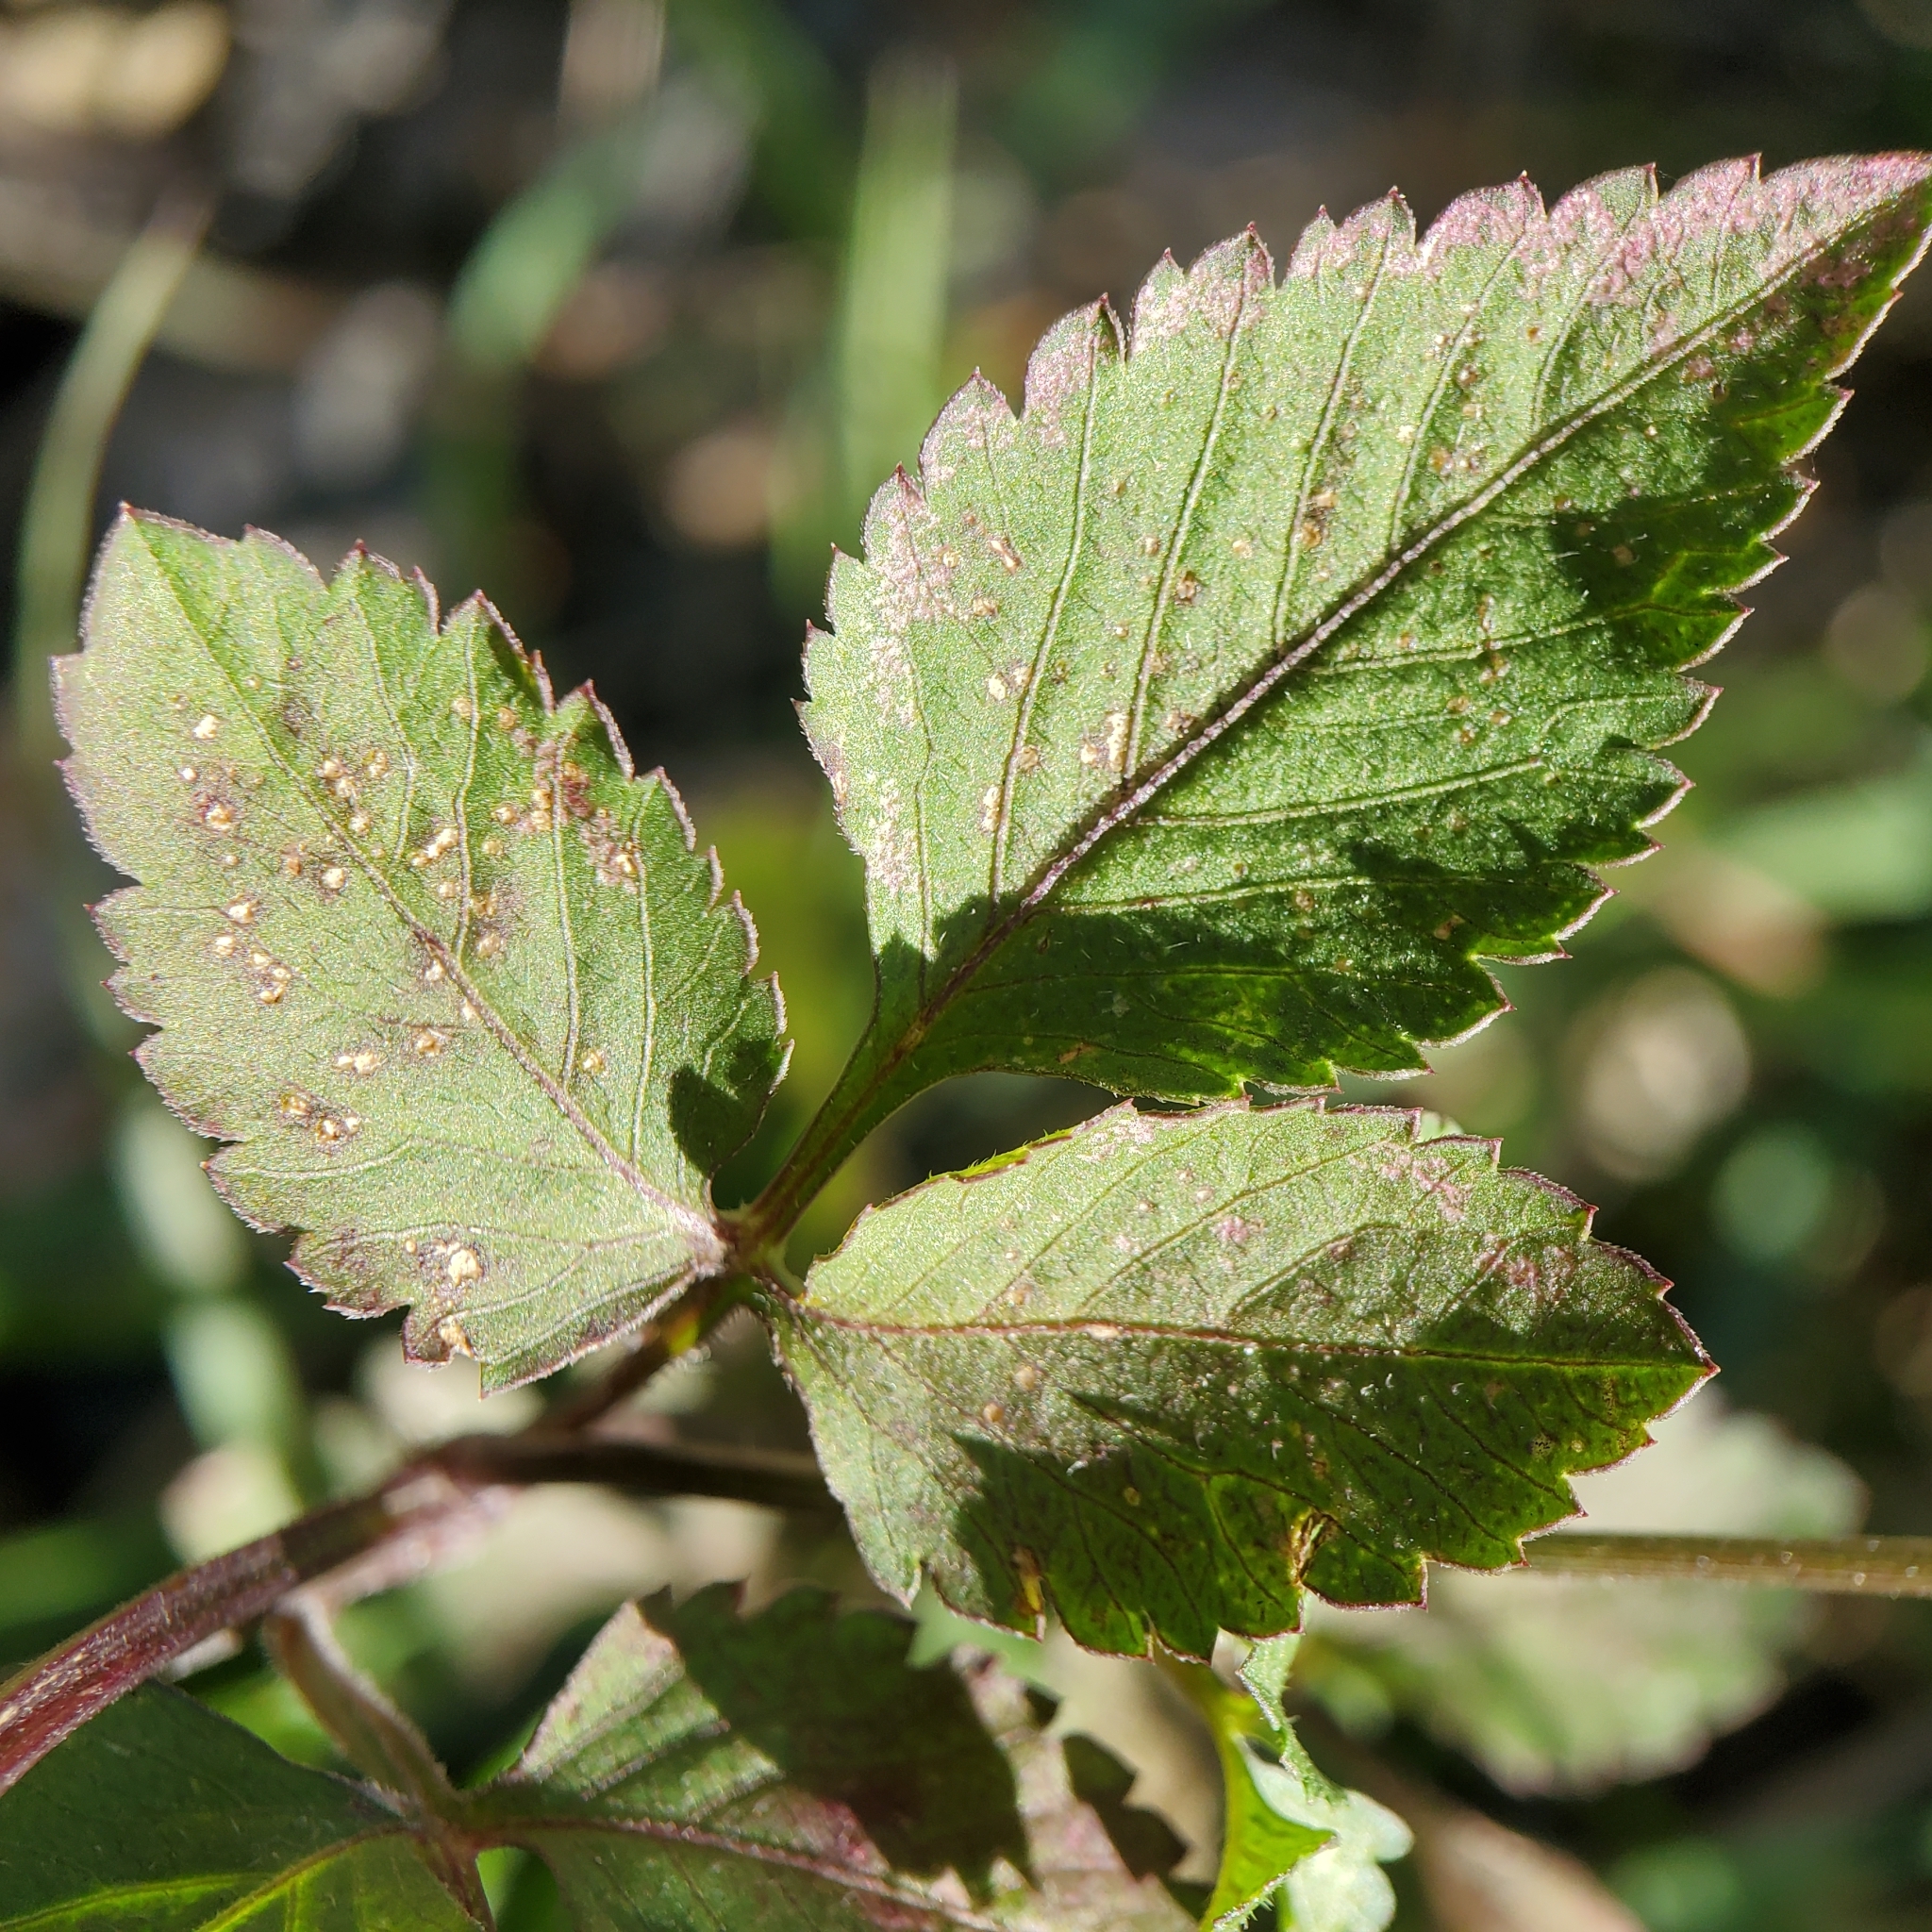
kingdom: Plantae
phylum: Tracheophyta
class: Magnoliopsida
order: Asterales
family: Asteraceae
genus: Bidens
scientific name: Bidens pilosa
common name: Black-jack
